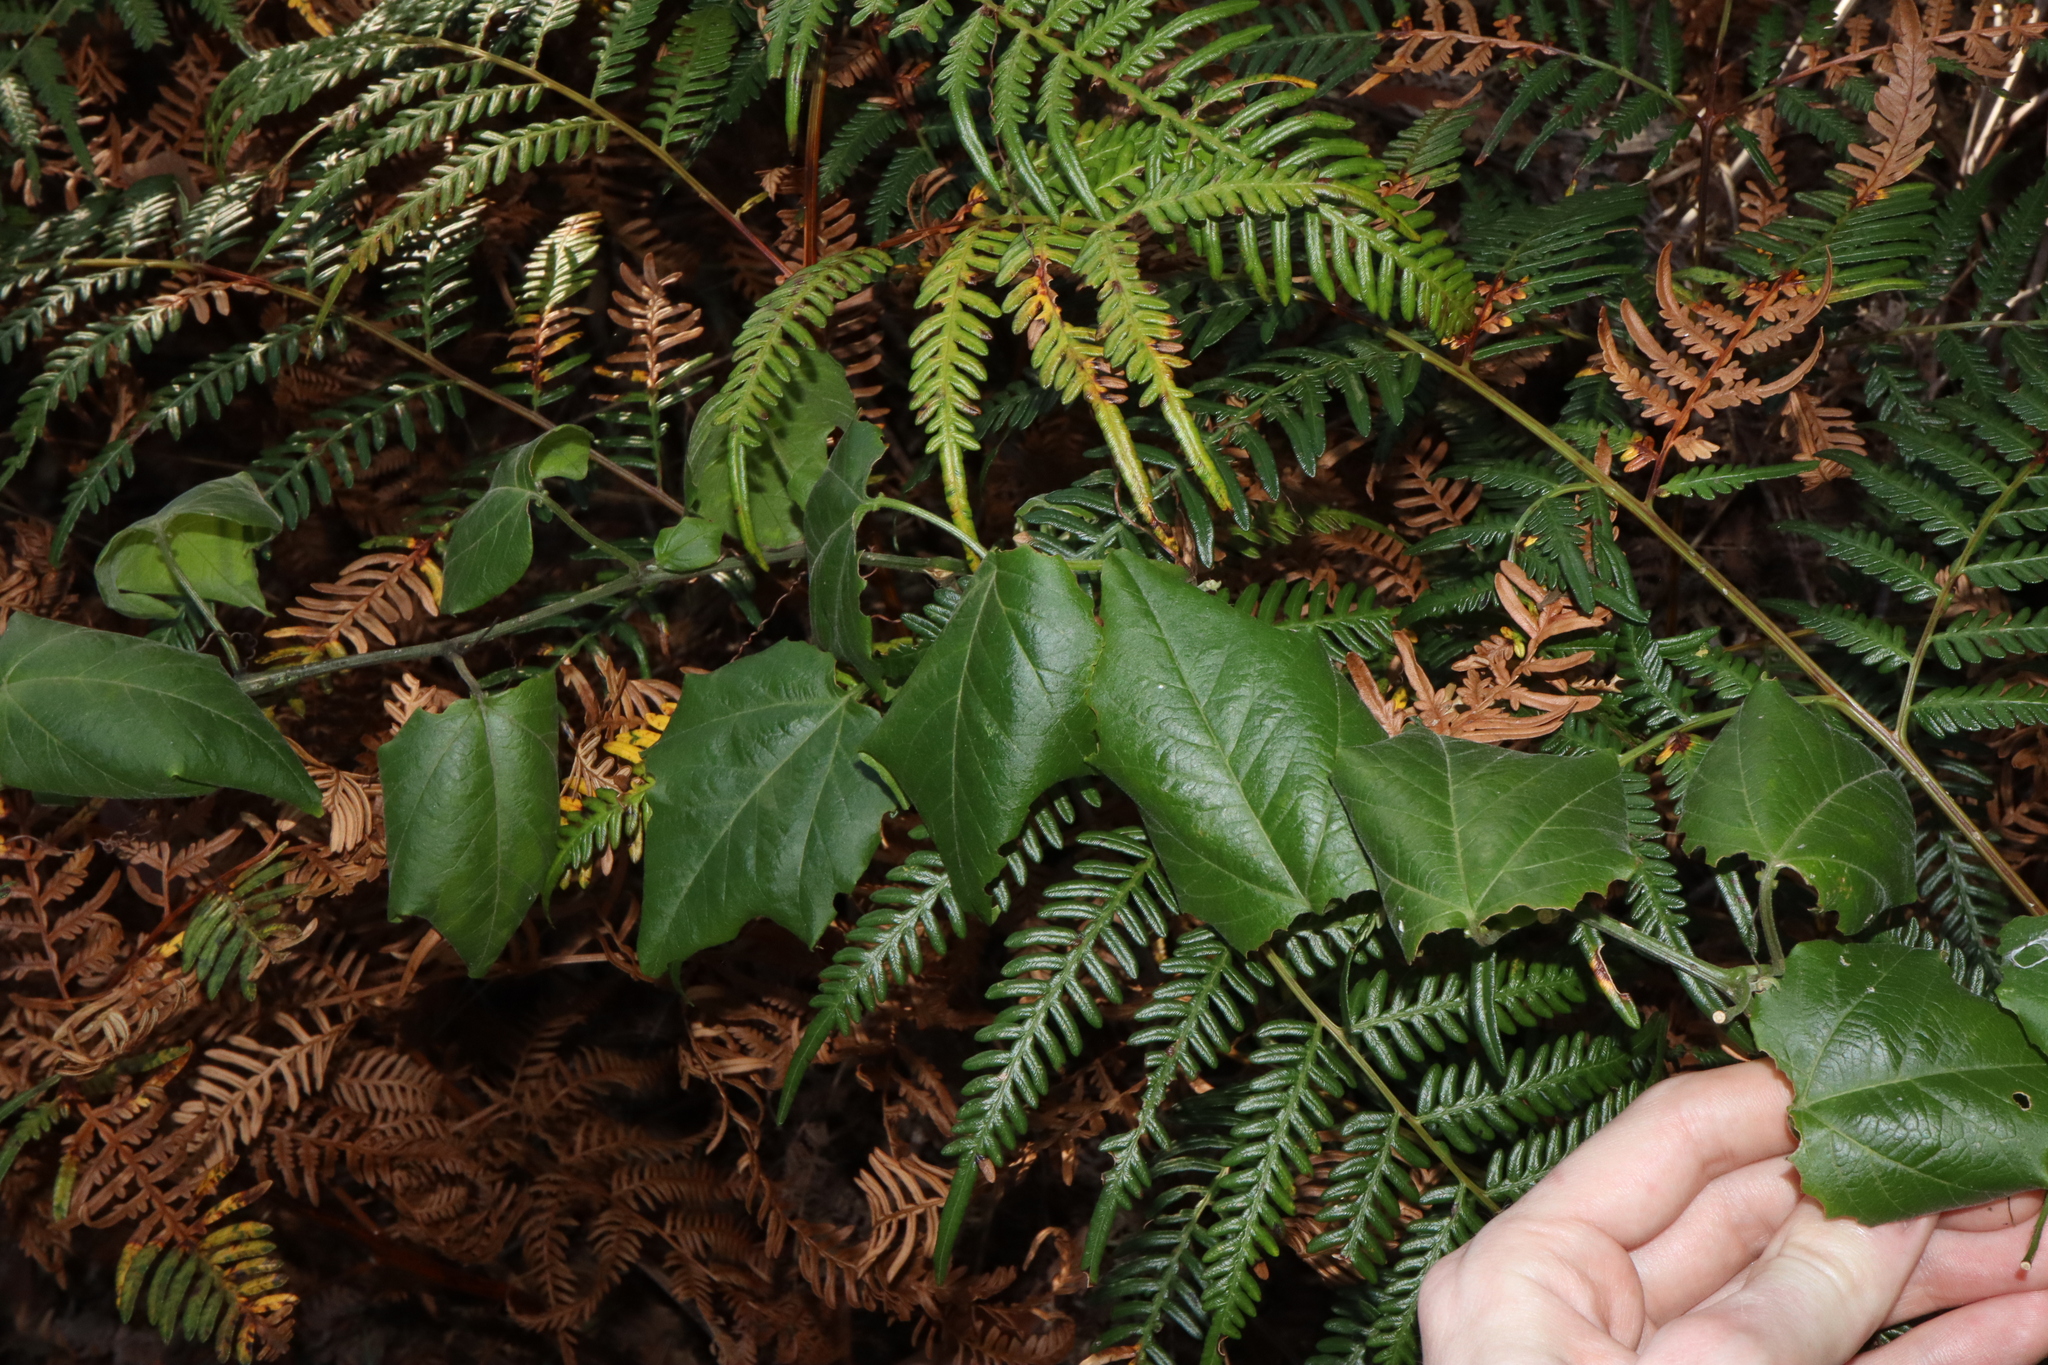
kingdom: Plantae
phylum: Tracheophyta
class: Magnoliopsida
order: Malpighiales
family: Passifloraceae
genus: Passiflora
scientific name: Passiflora herbertiana
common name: Yellow passionflower
